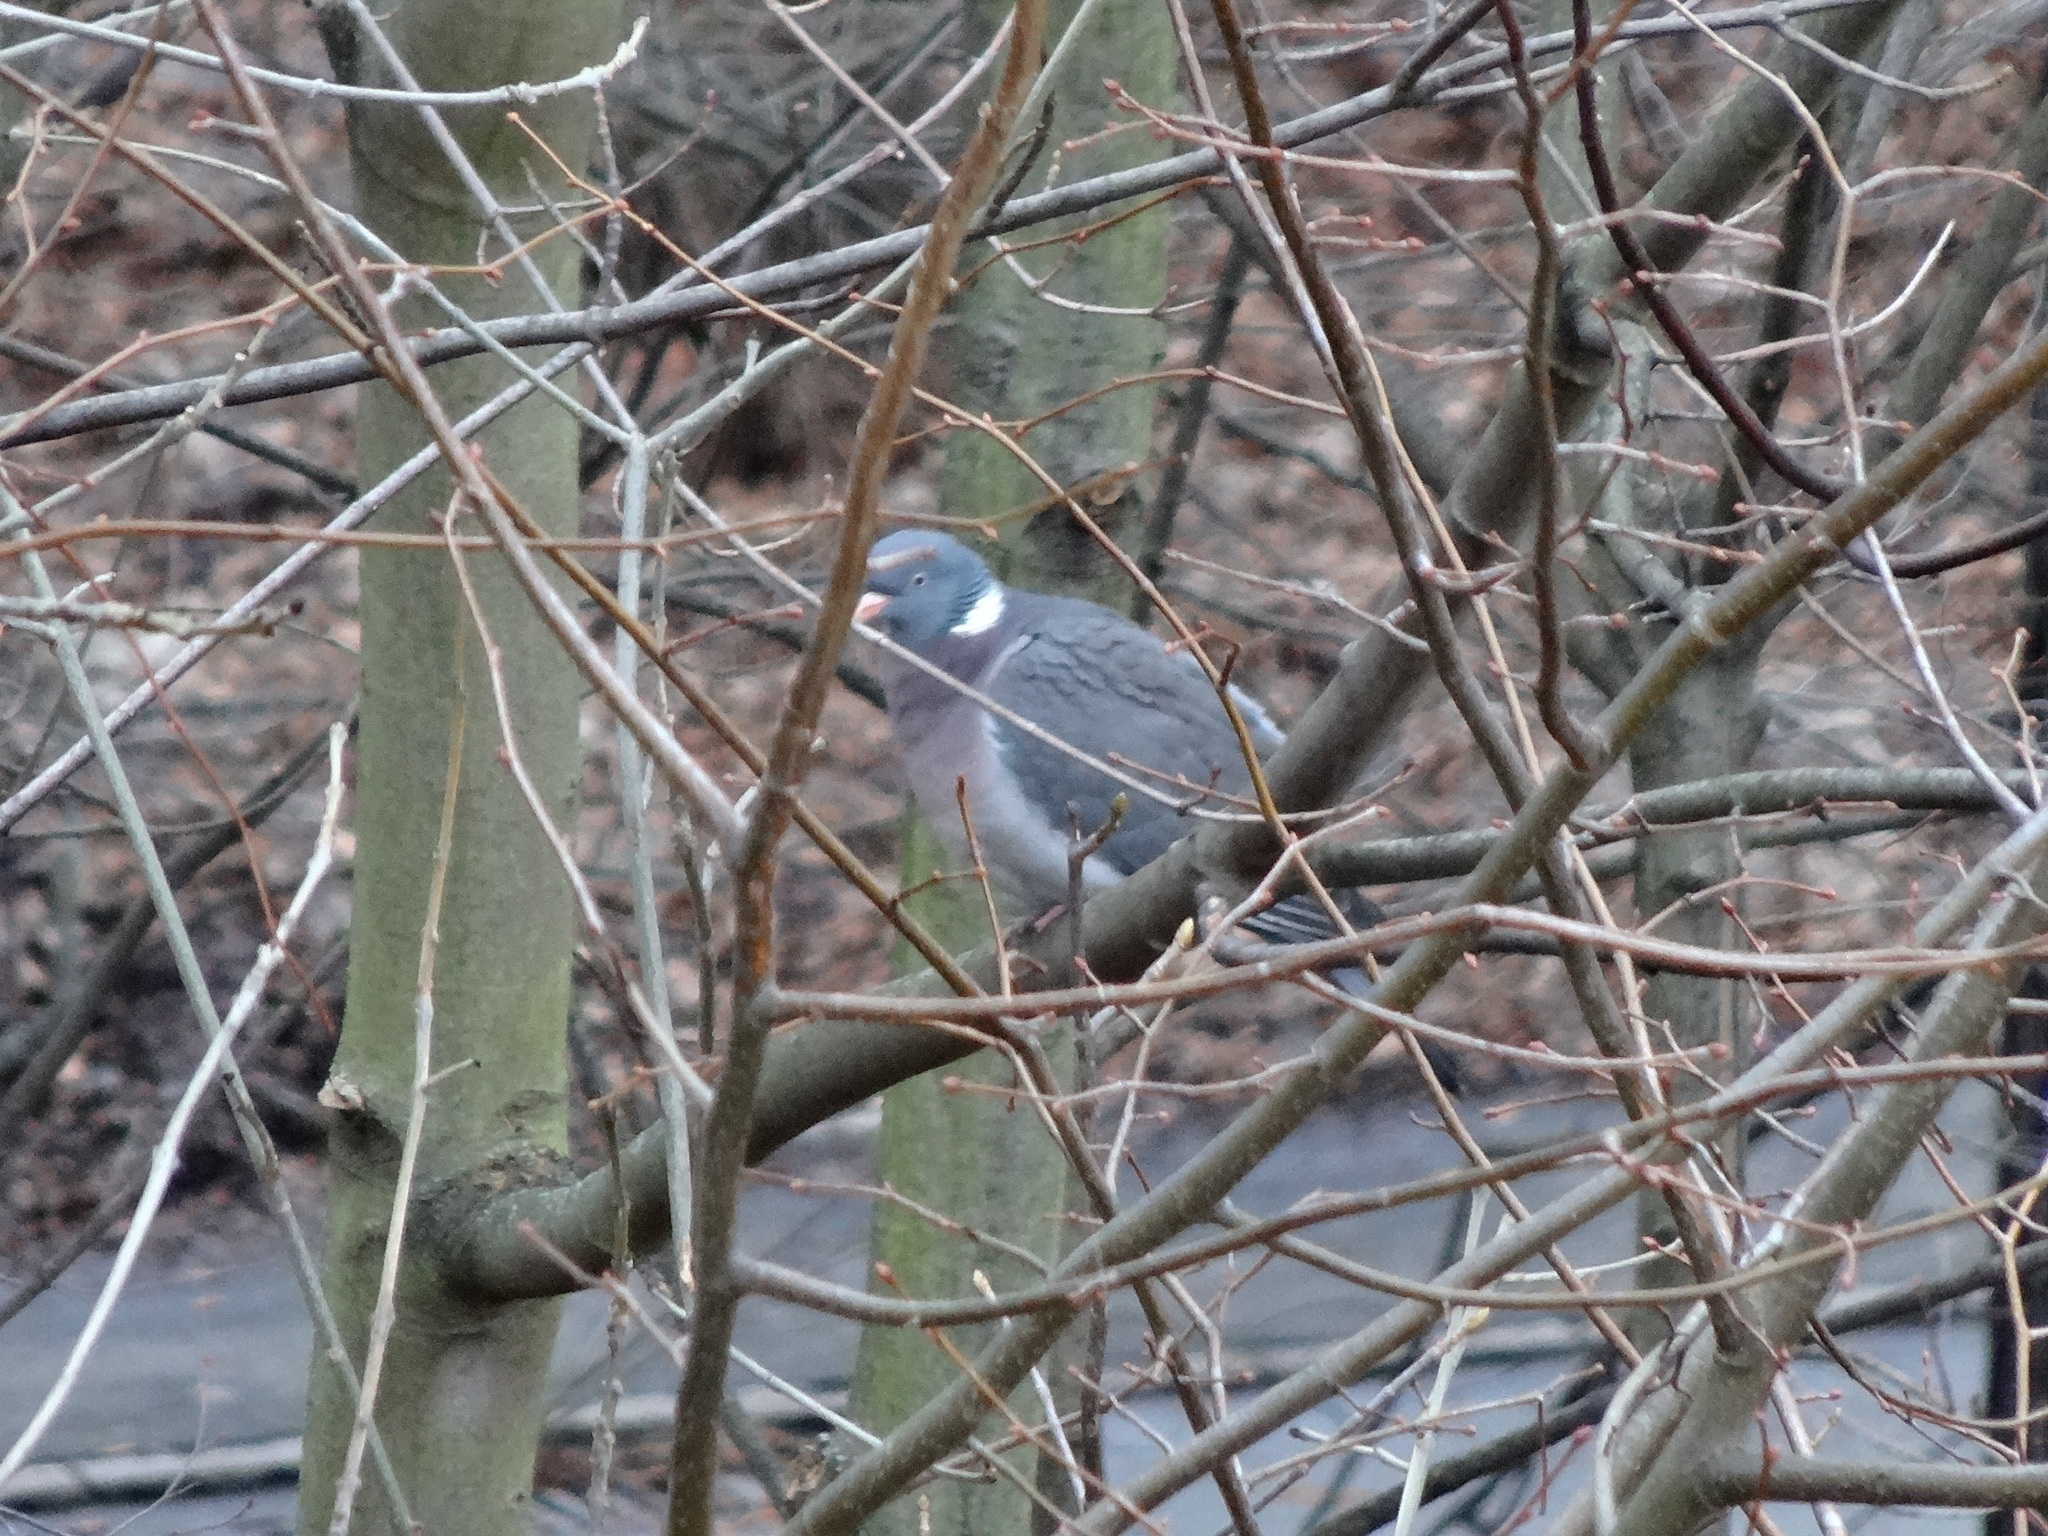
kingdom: Animalia
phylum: Chordata
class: Aves
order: Columbiformes
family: Columbidae
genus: Columba
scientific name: Columba palumbus
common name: Common wood pigeon
